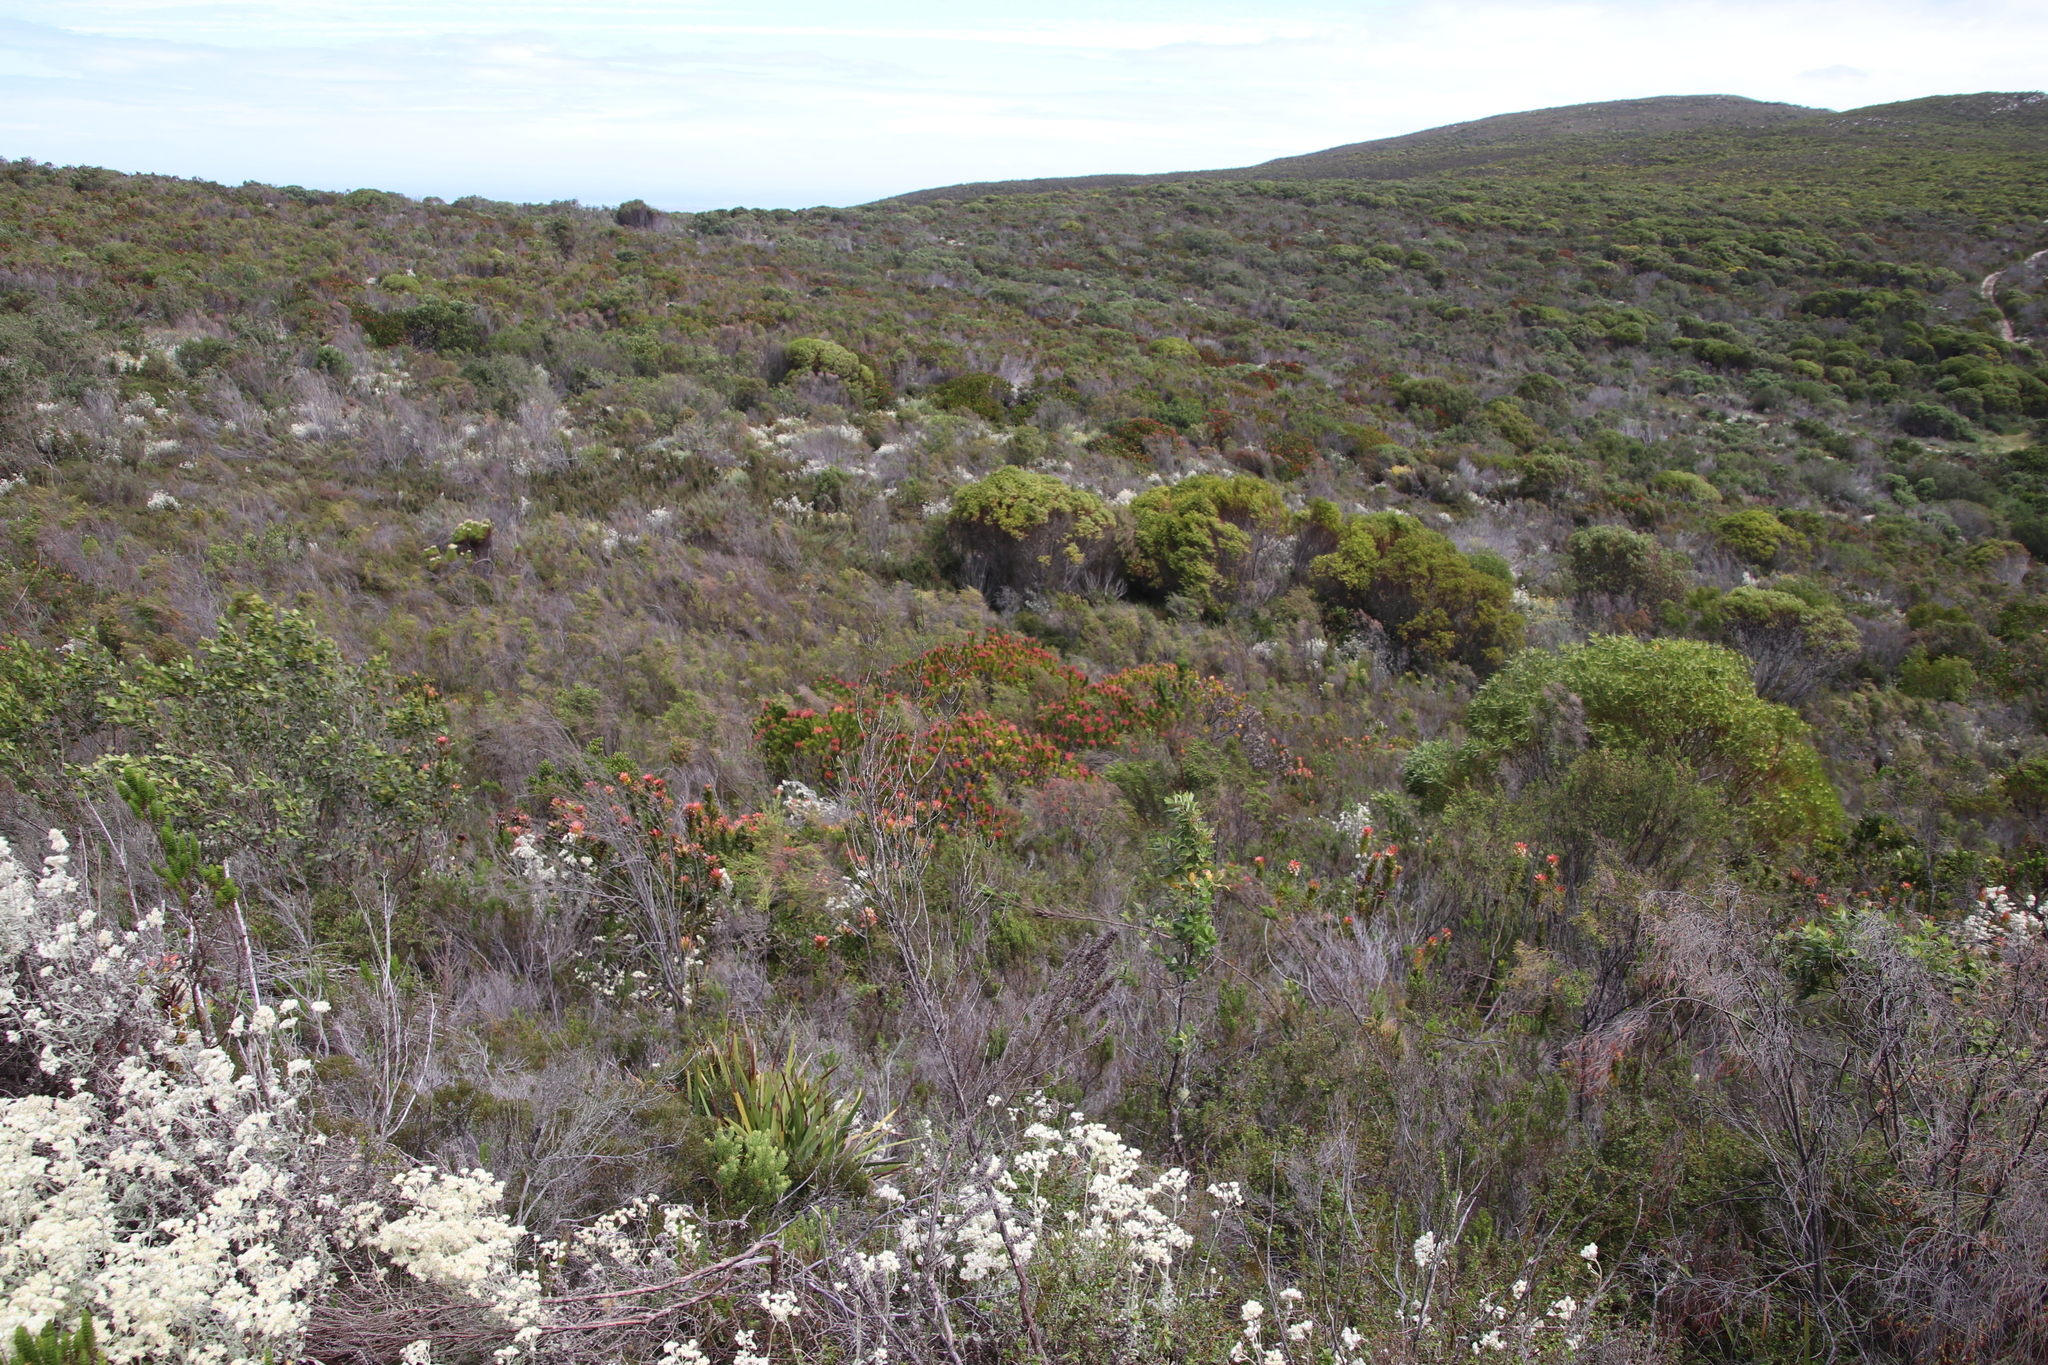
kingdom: Plantae
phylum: Tracheophyta
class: Magnoliopsida
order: Proteales
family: Proteaceae
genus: Leucospermum
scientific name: Leucospermum patersonii
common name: False tree pincushion
